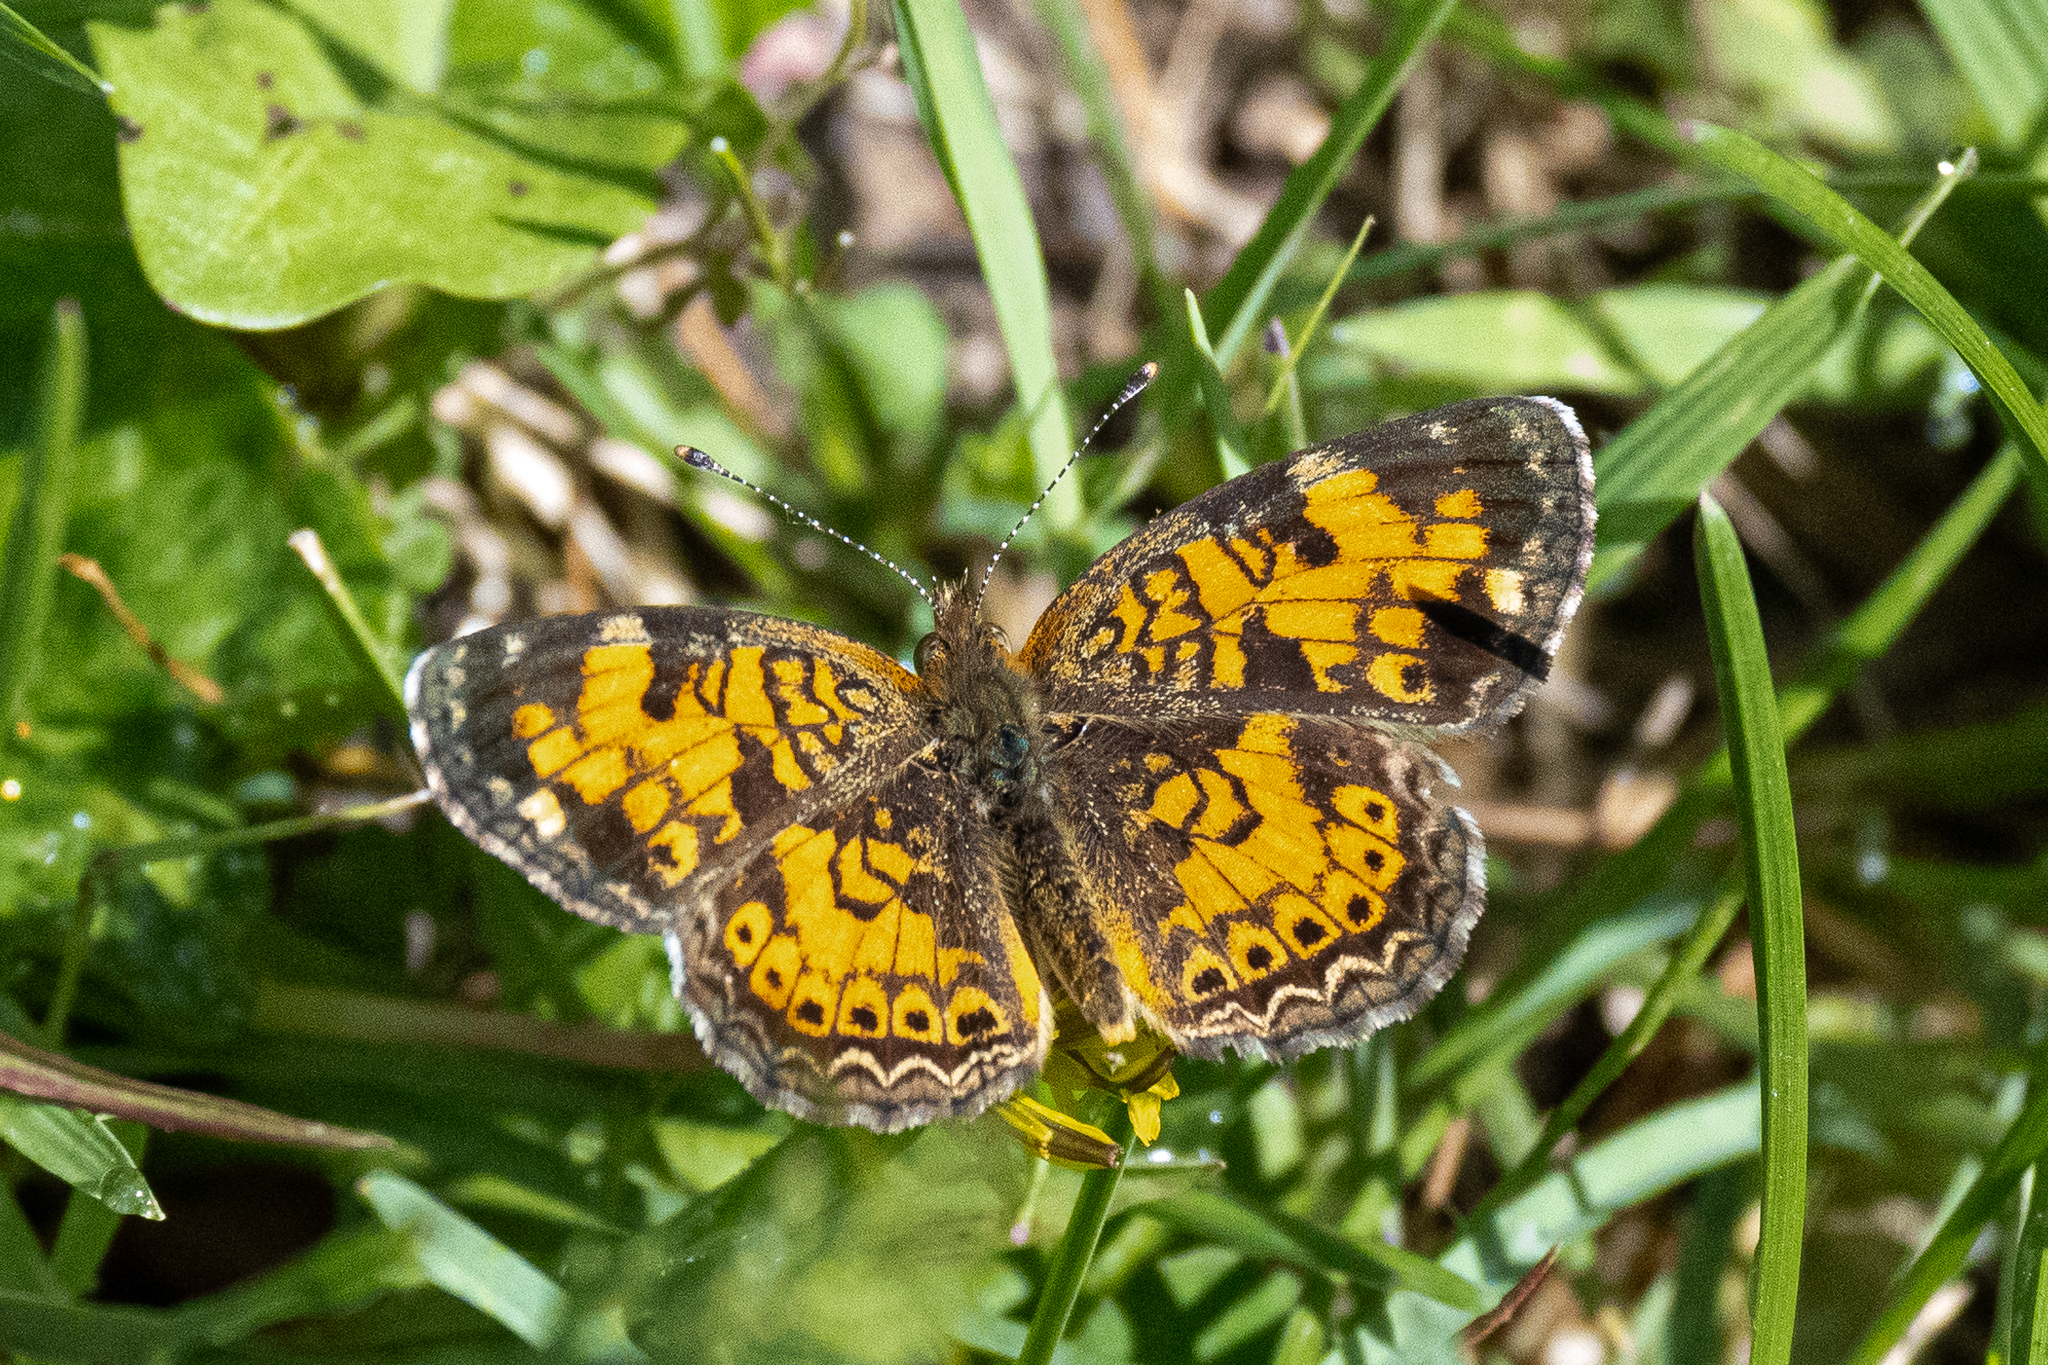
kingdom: Animalia
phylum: Arthropoda
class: Insecta
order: Lepidoptera
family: Nymphalidae
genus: Phyciodes
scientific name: Phyciodes tharos
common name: Pearl crescent
